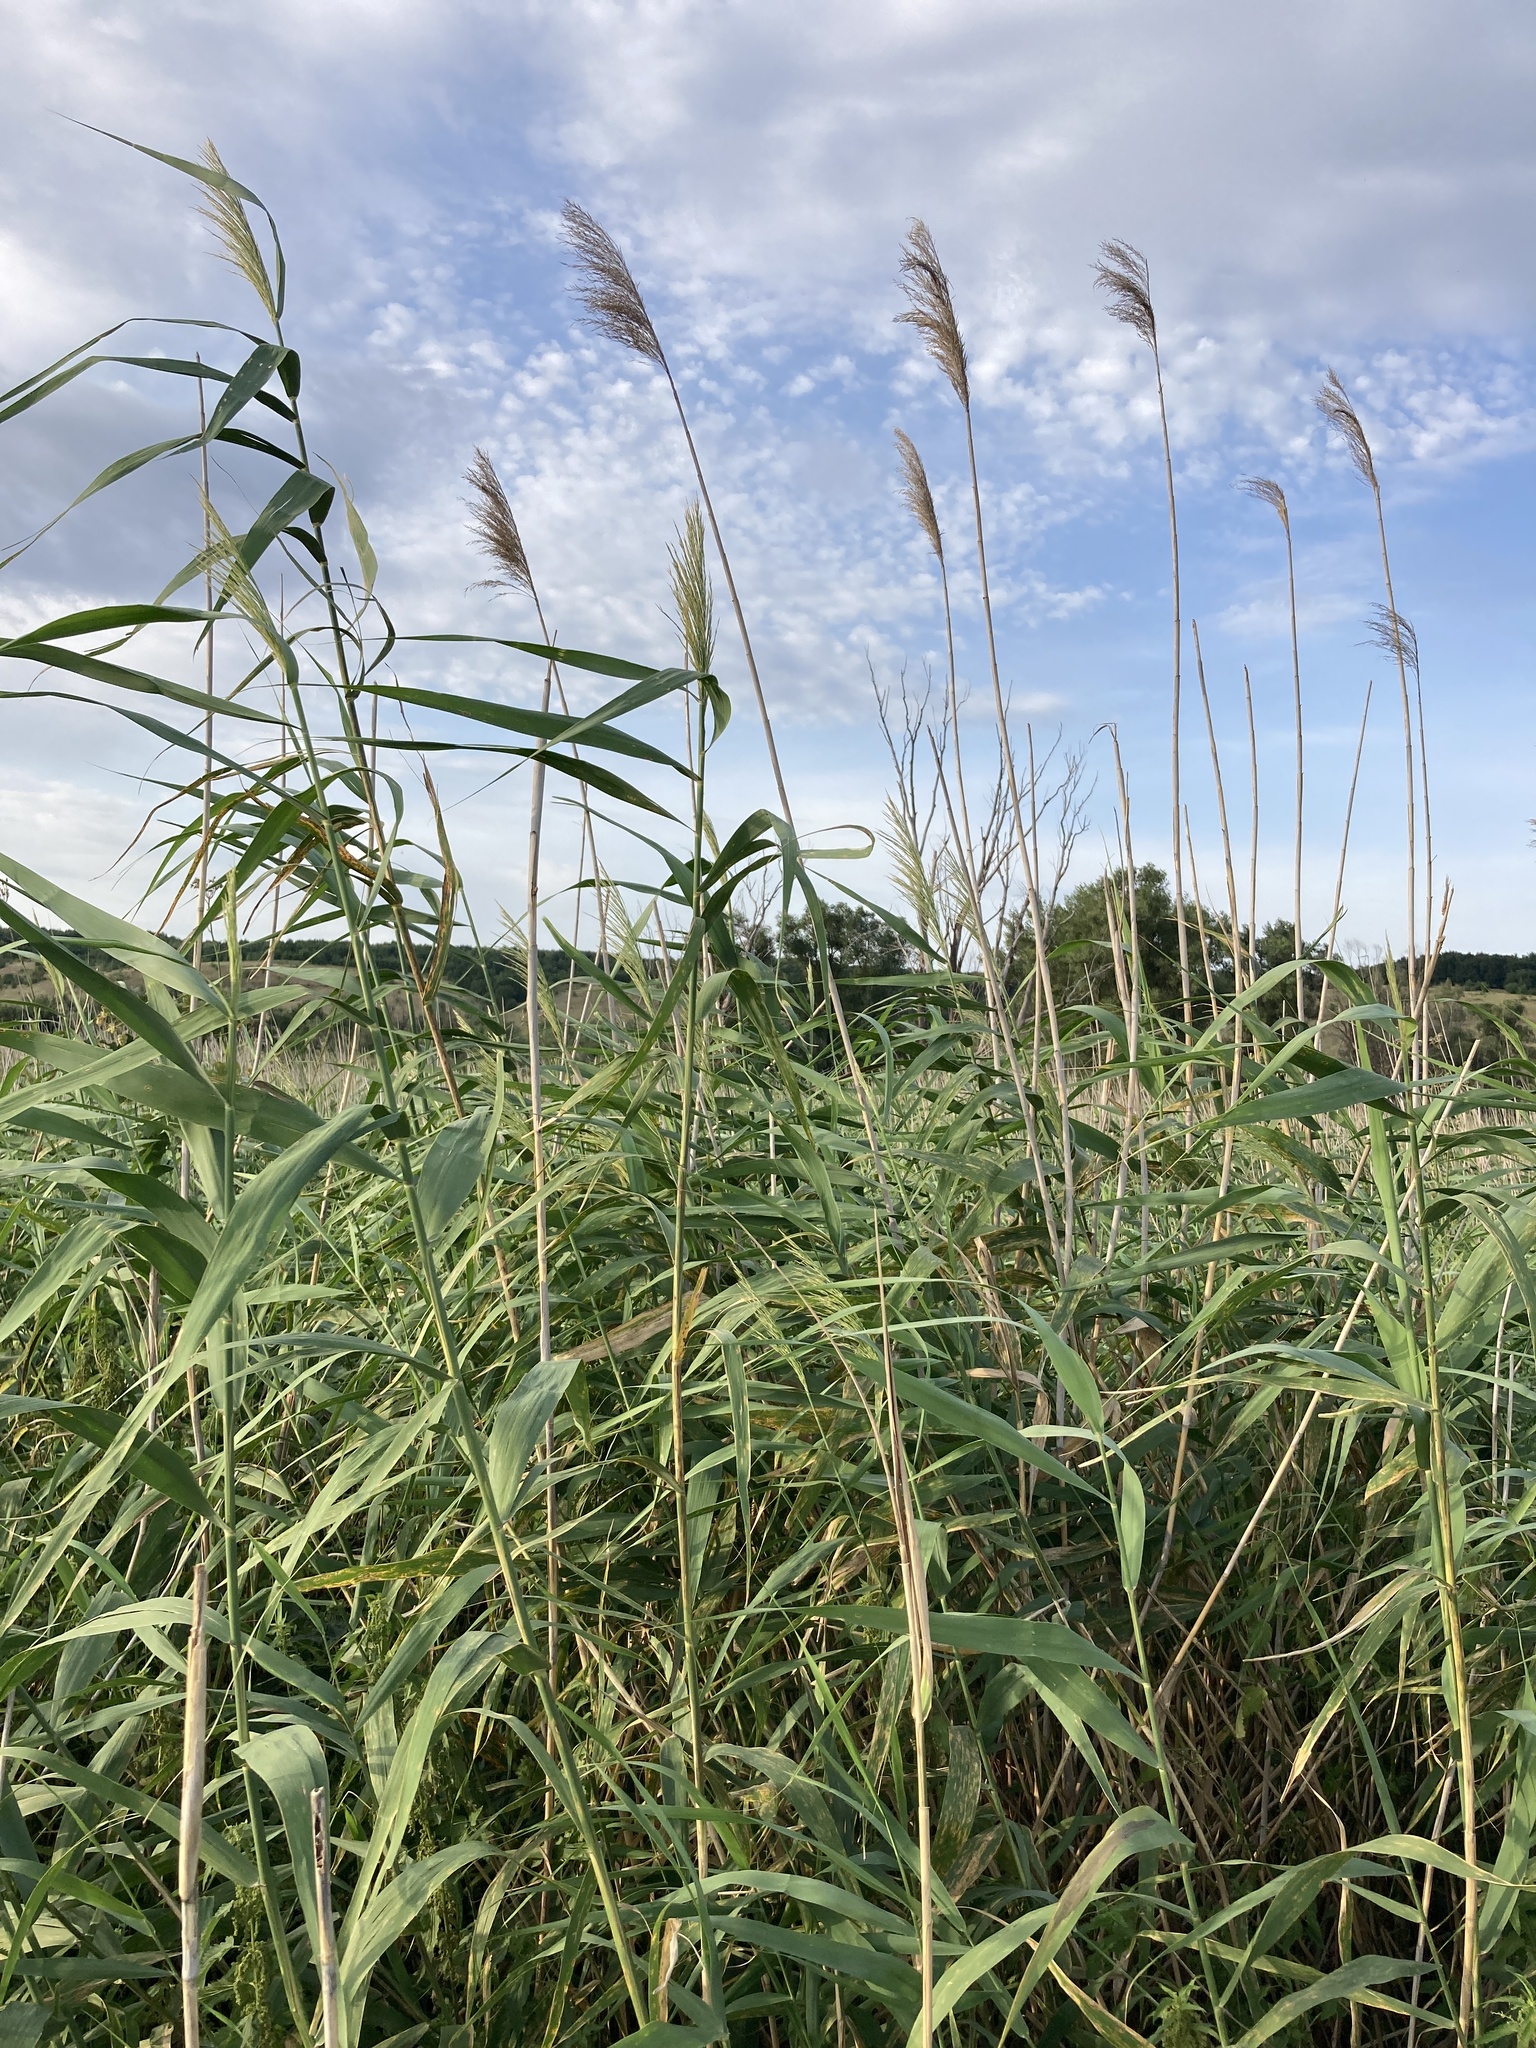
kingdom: Plantae
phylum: Tracheophyta
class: Liliopsida
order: Poales
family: Poaceae
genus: Phragmites
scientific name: Phragmites australis
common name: Common reed
